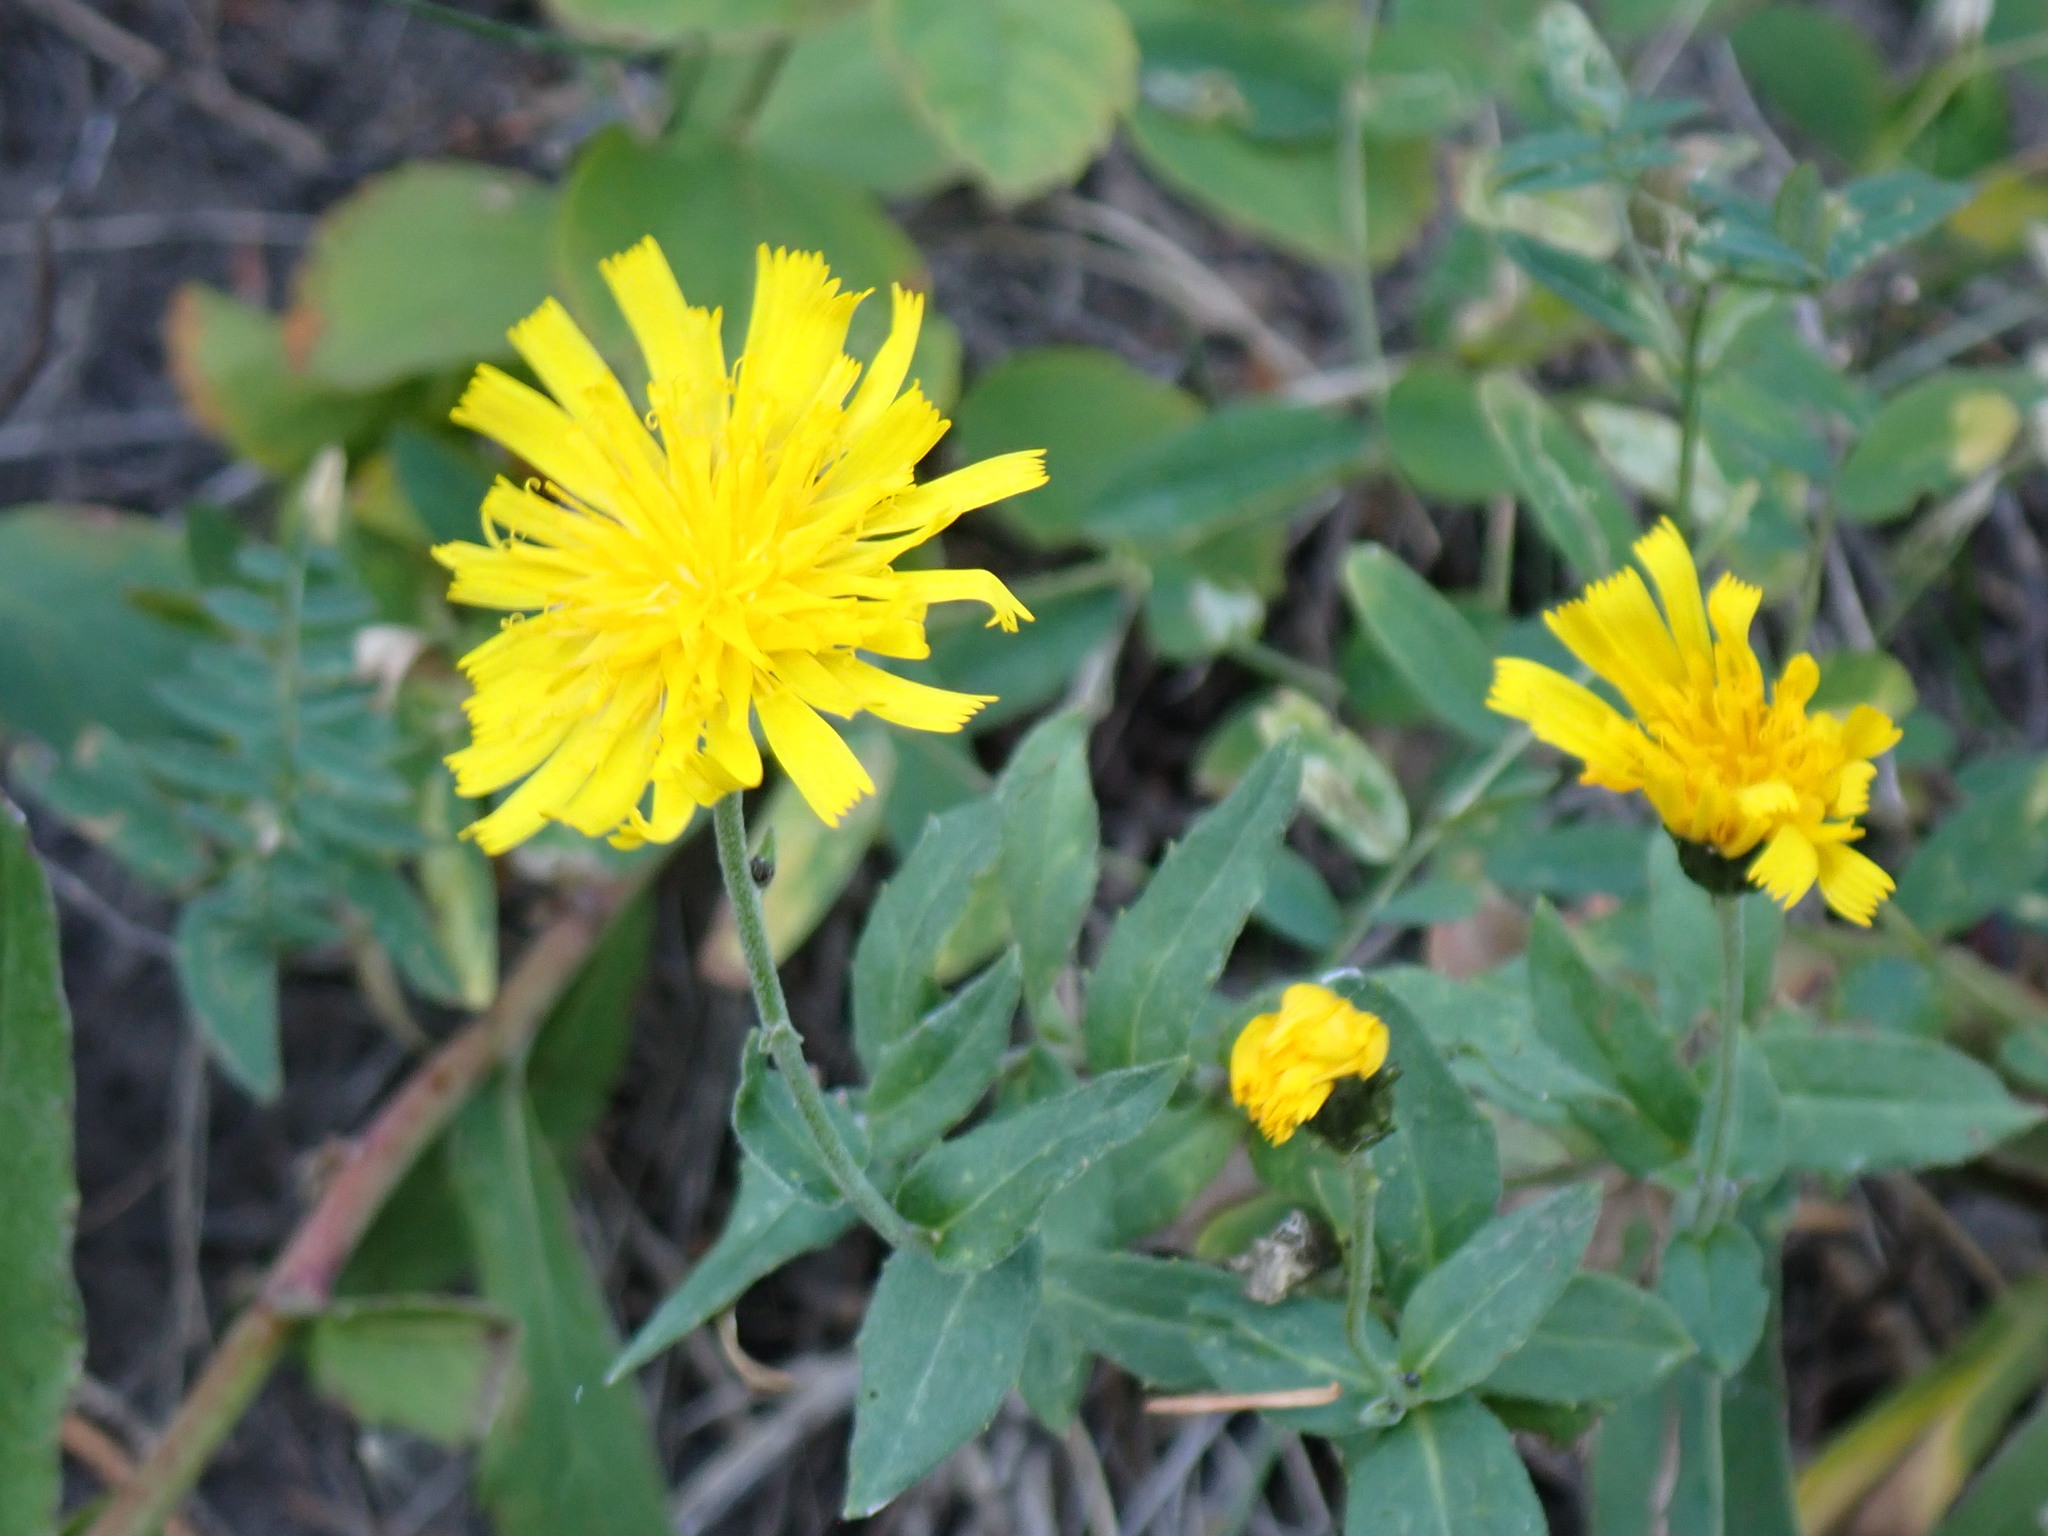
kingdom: Plantae
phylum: Tracheophyta
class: Magnoliopsida
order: Asterales
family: Asteraceae
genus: Hieracium
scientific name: Hieracium umbellatum
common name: Northern hawkweed
